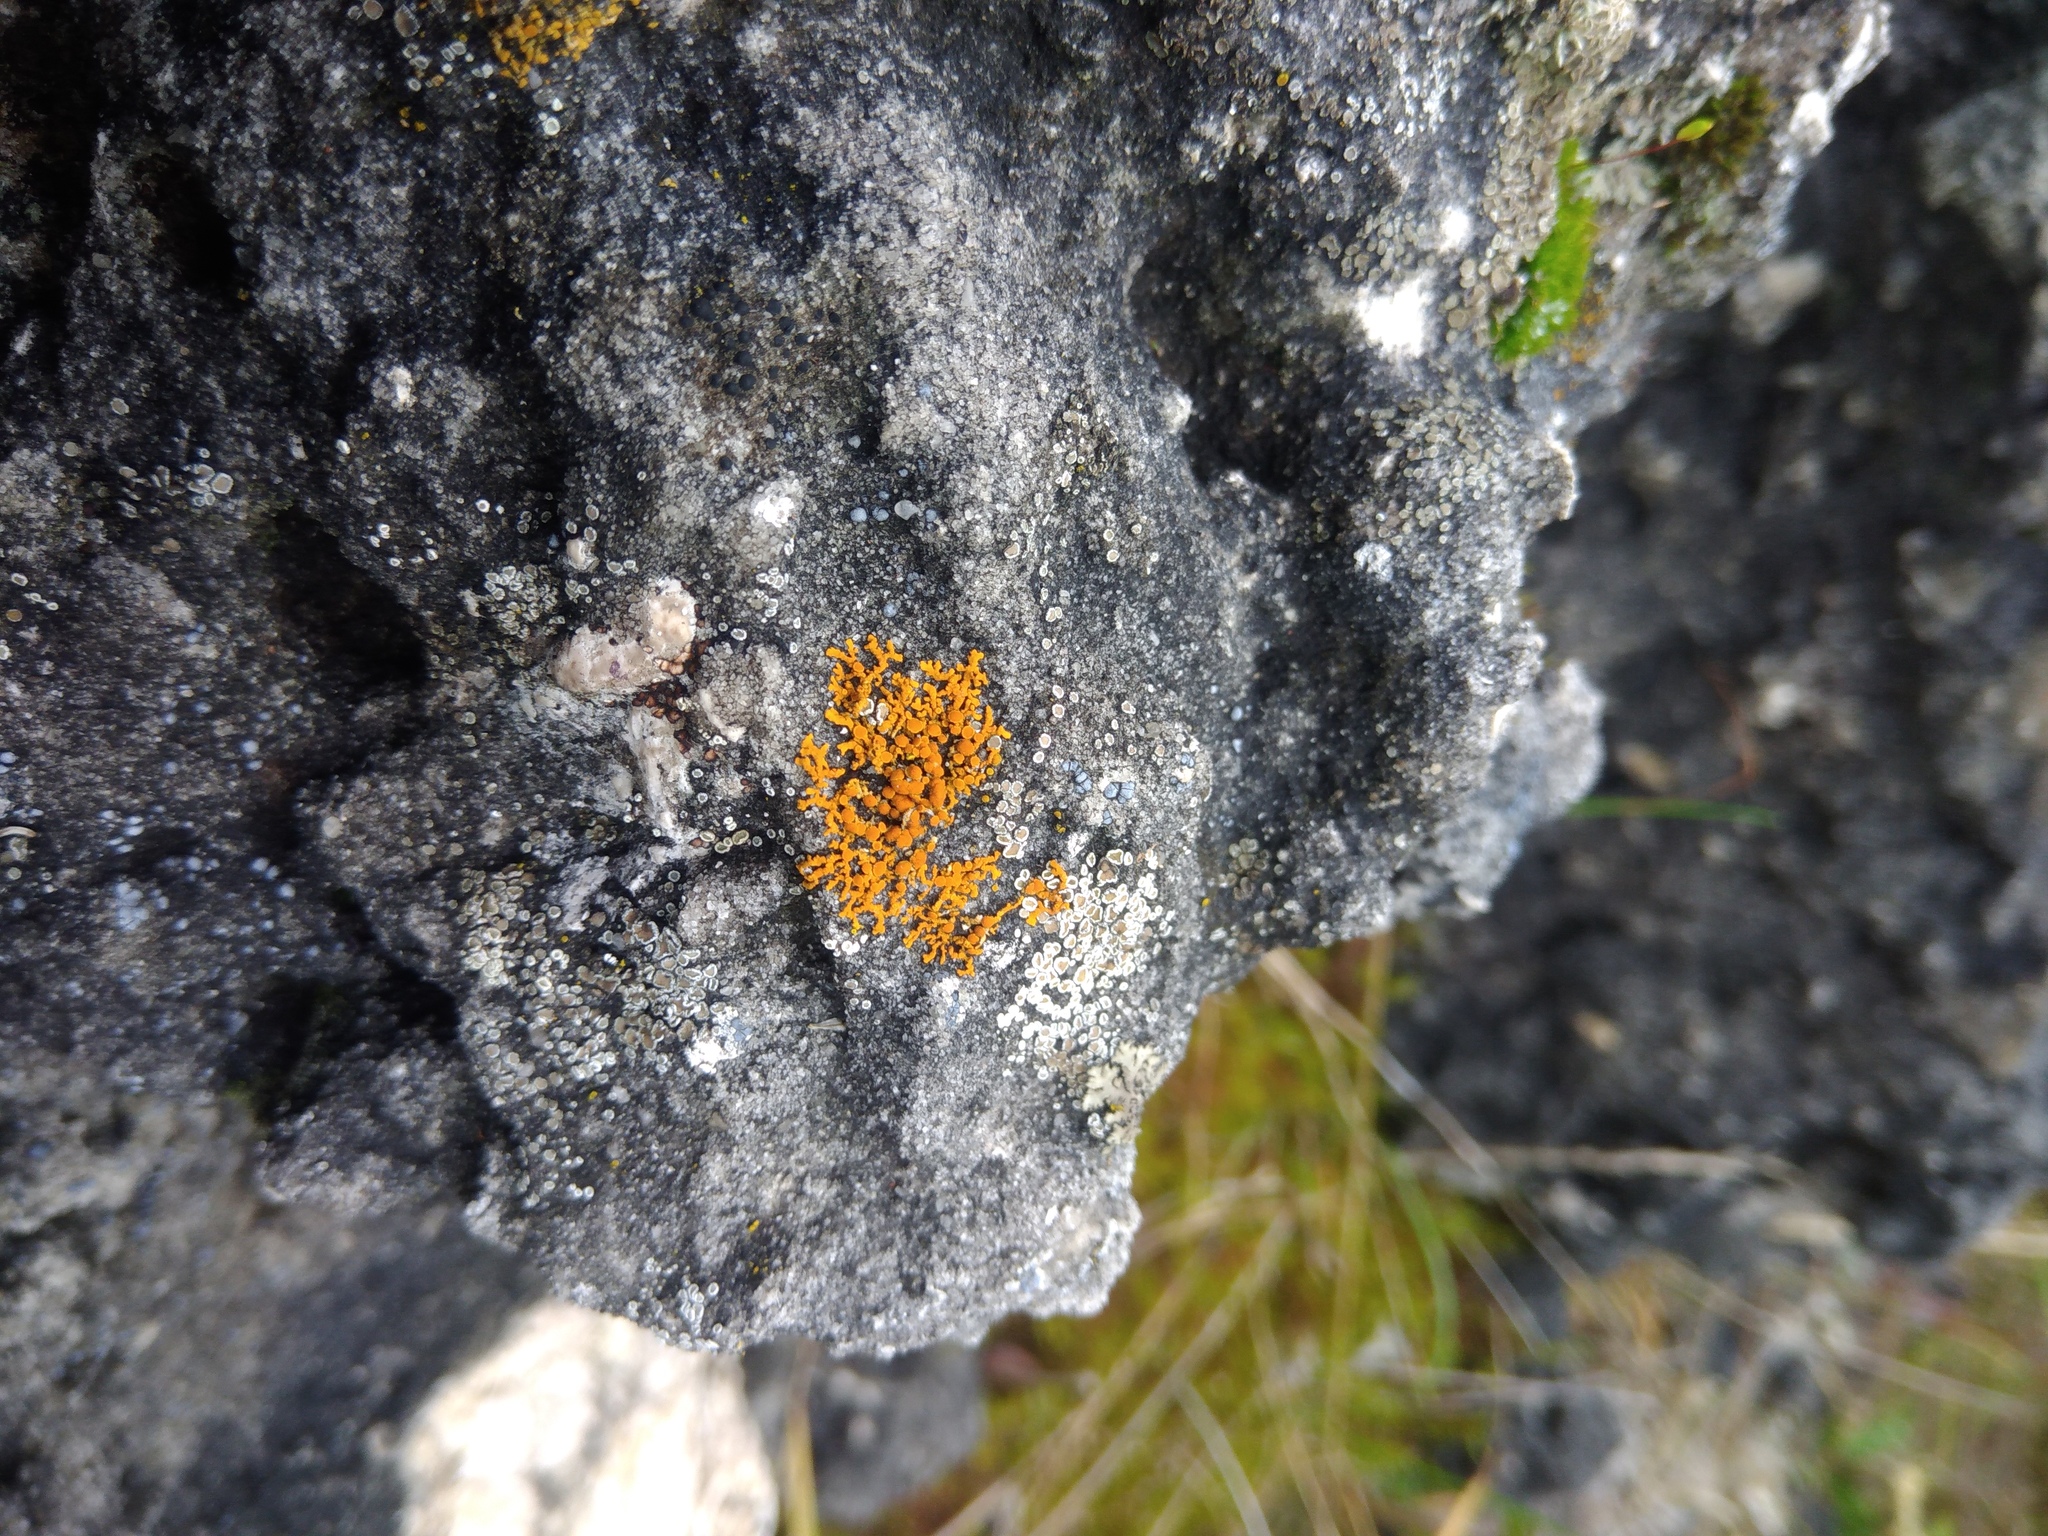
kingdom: Fungi
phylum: Ascomycota
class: Lecanoromycetes
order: Teloschistales
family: Teloschistaceae
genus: Xanthoria
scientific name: Xanthoria elegans
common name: Elegant sunburst lichen
